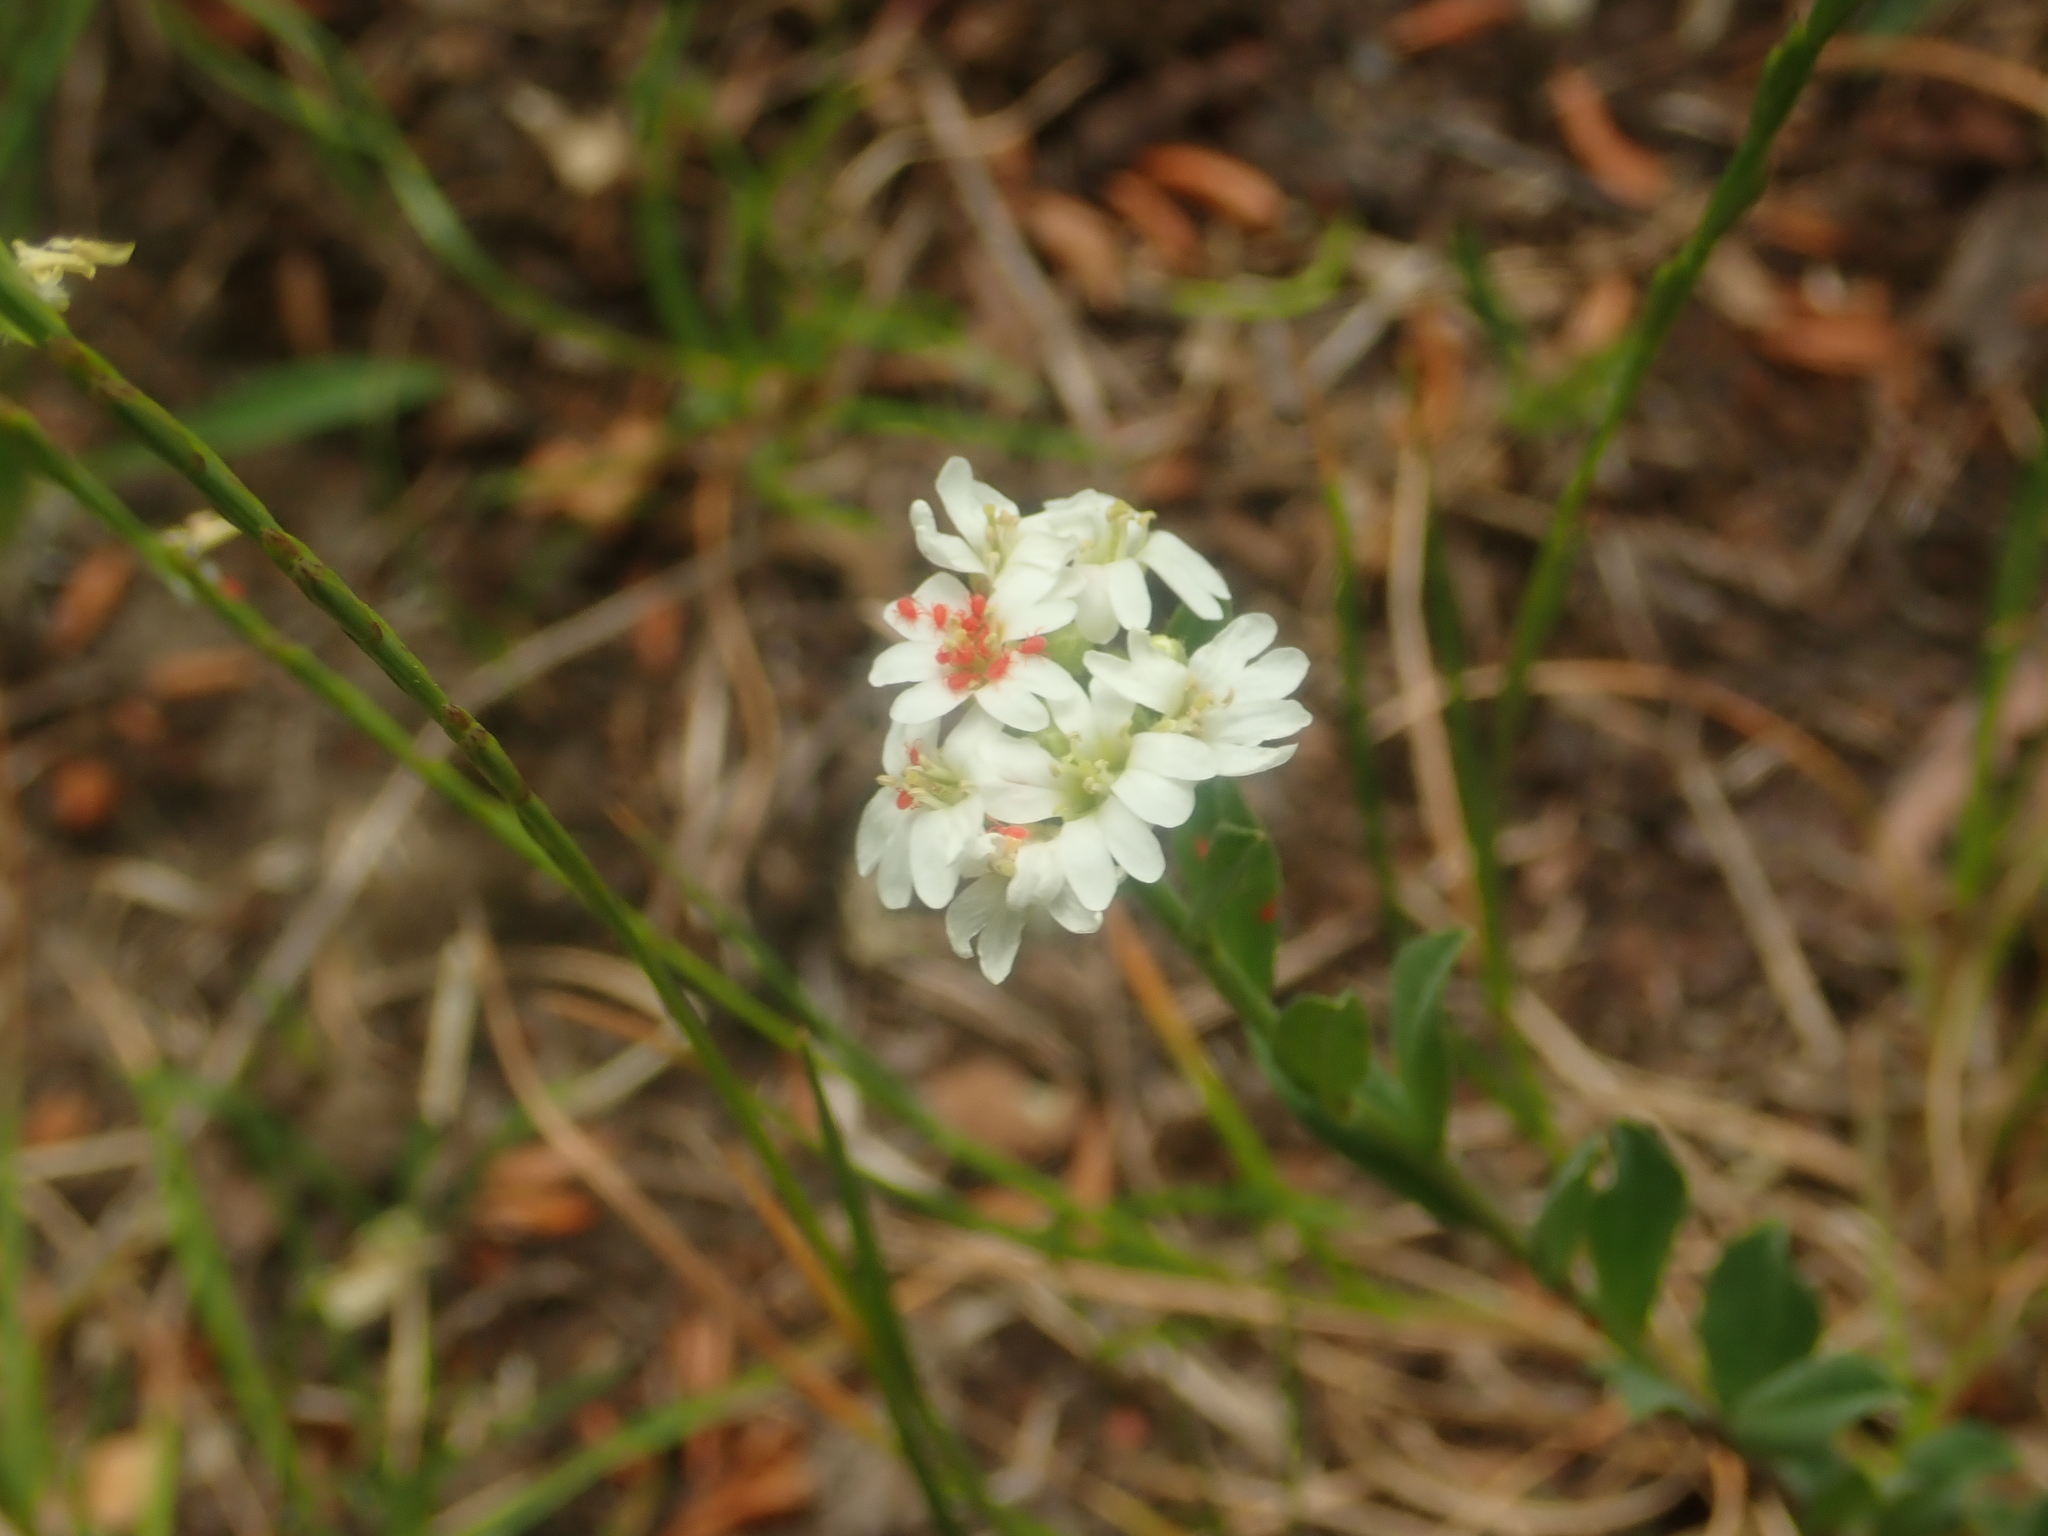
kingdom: Plantae
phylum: Tracheophyta
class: Magnoliopsida
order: Brassicales
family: Brassicaceae
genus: Berteroa
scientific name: Berteroa incana
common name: Hoary alison
